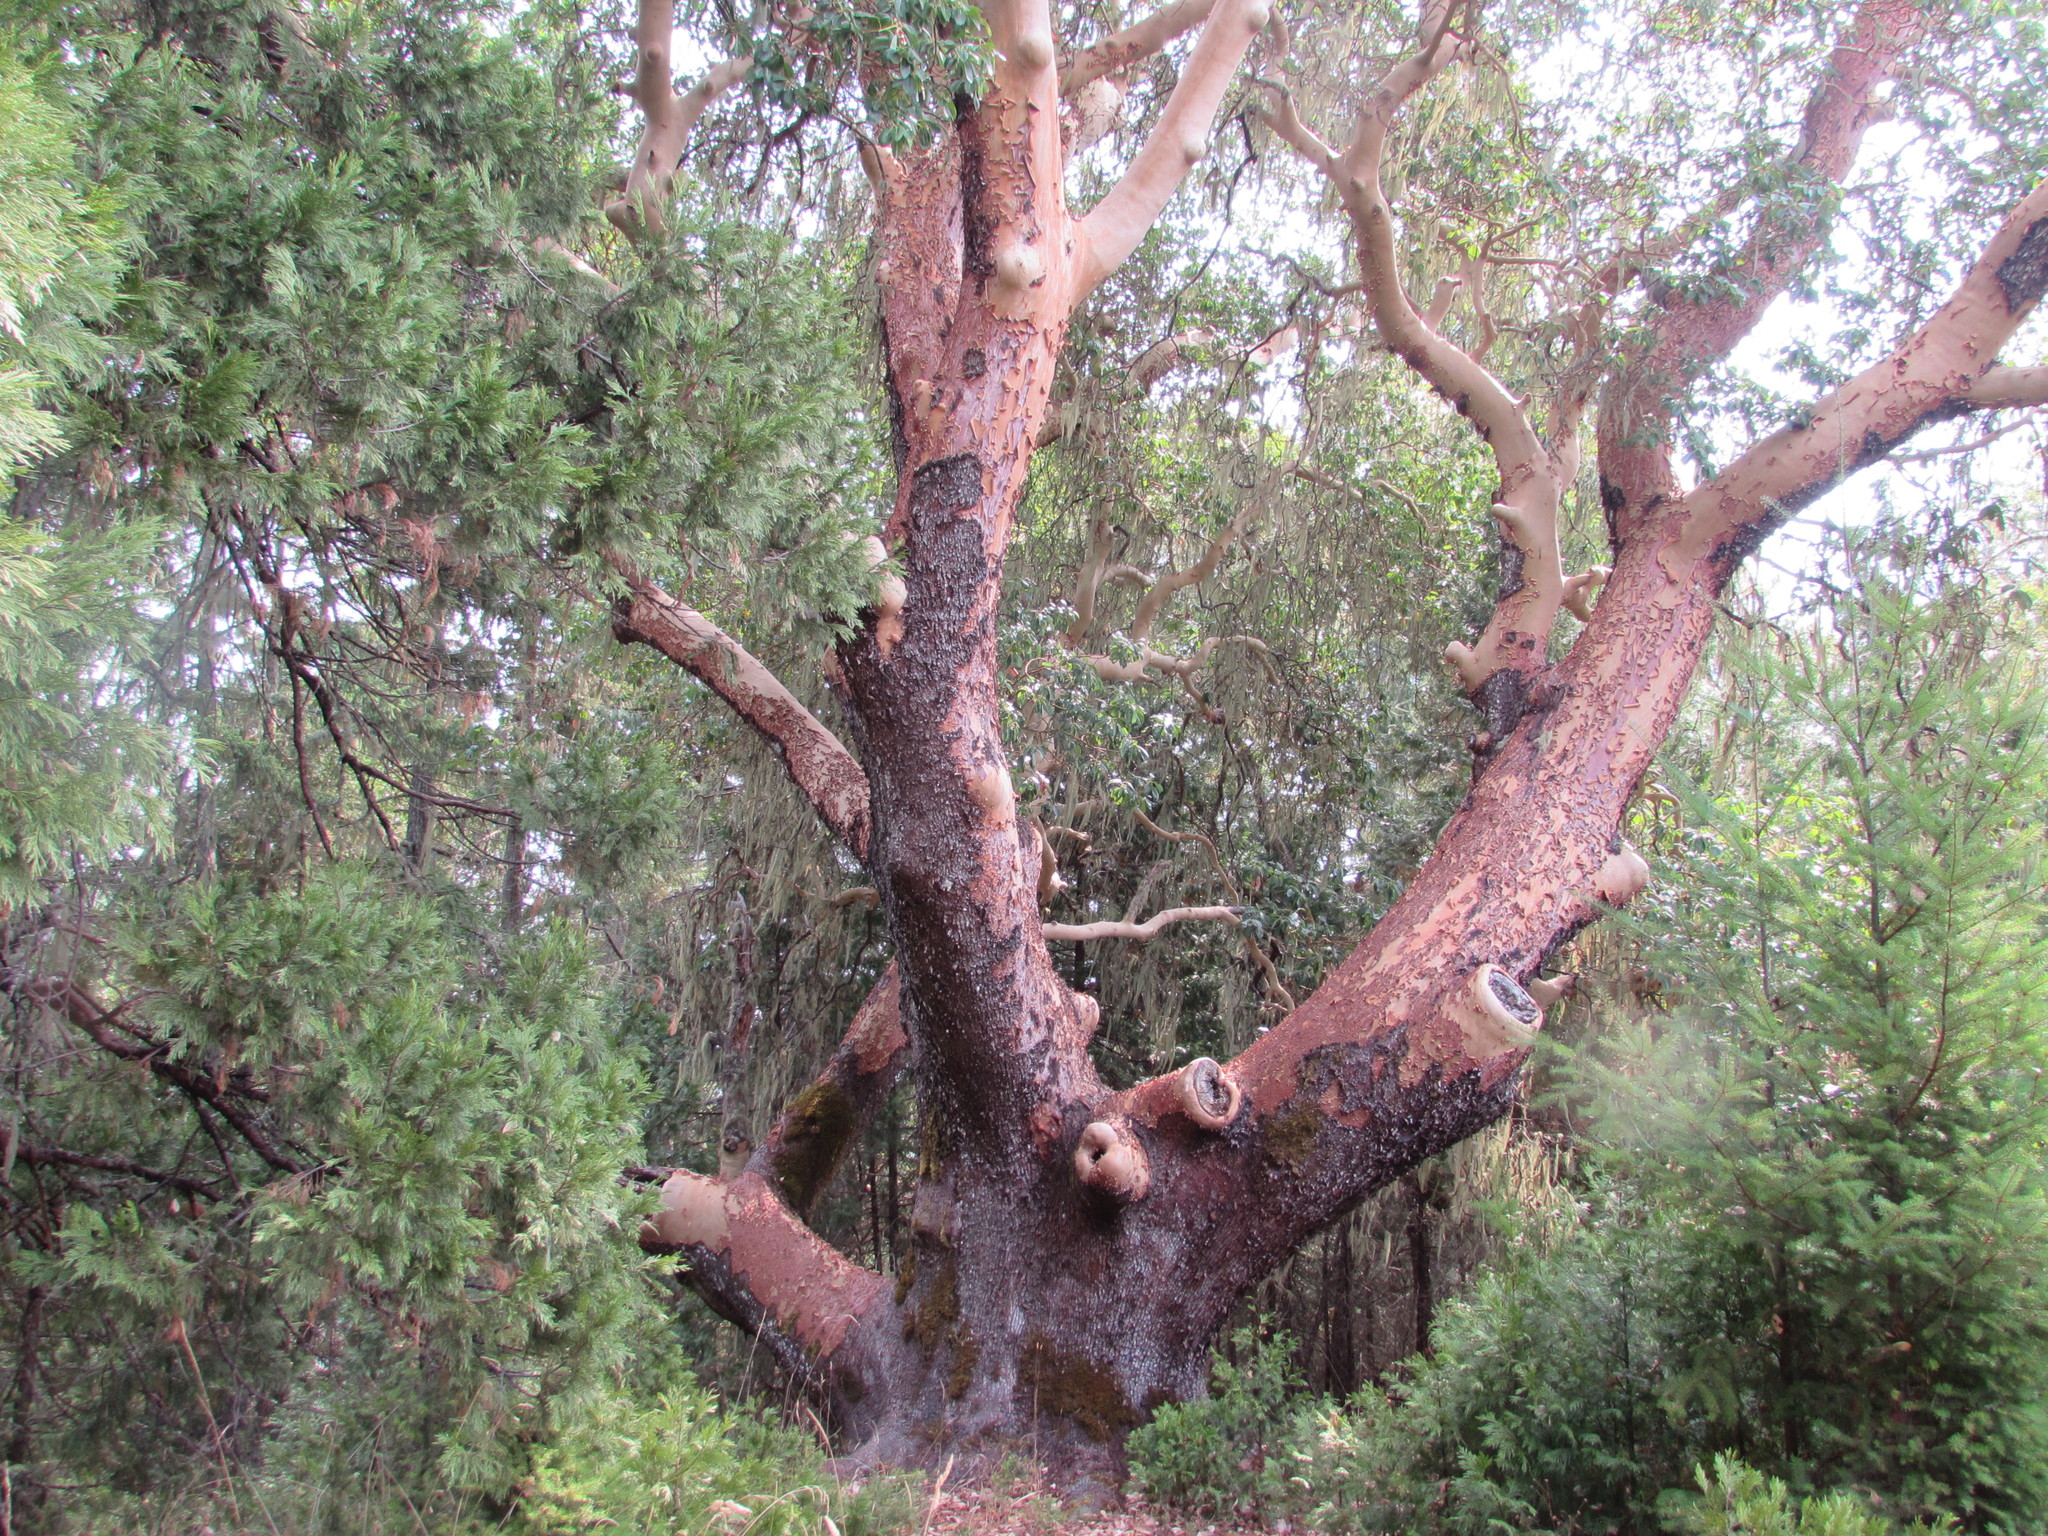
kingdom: Plantae
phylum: Tracheophyta
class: Magnoliopsida
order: Ericales
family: Ericaceae
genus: Arbutus
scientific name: Arbutus menziesii
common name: Pacific madrone
